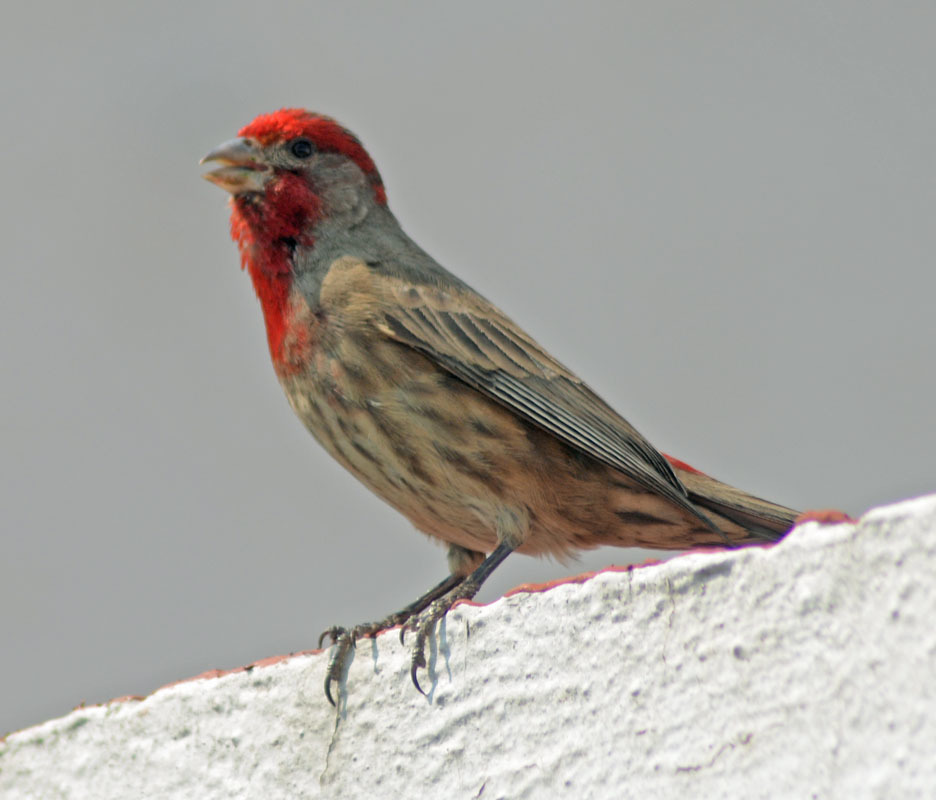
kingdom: Animalia
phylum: Chordata
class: Aves
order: Passeriformes
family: Fringillidae
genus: Haemorhous
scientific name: Haemorhous mexicanus
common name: House finch
